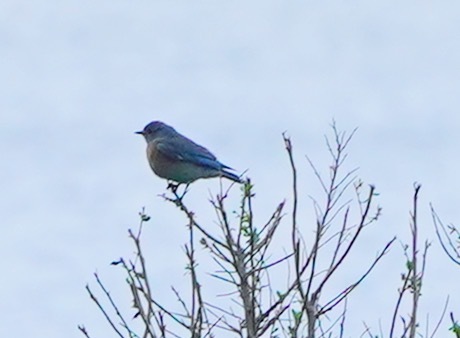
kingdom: Animalia
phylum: Chordata
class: Aves
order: Passeriformes
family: Turdidae
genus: Sialia
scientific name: Sialia mexicana
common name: Western bluebird
